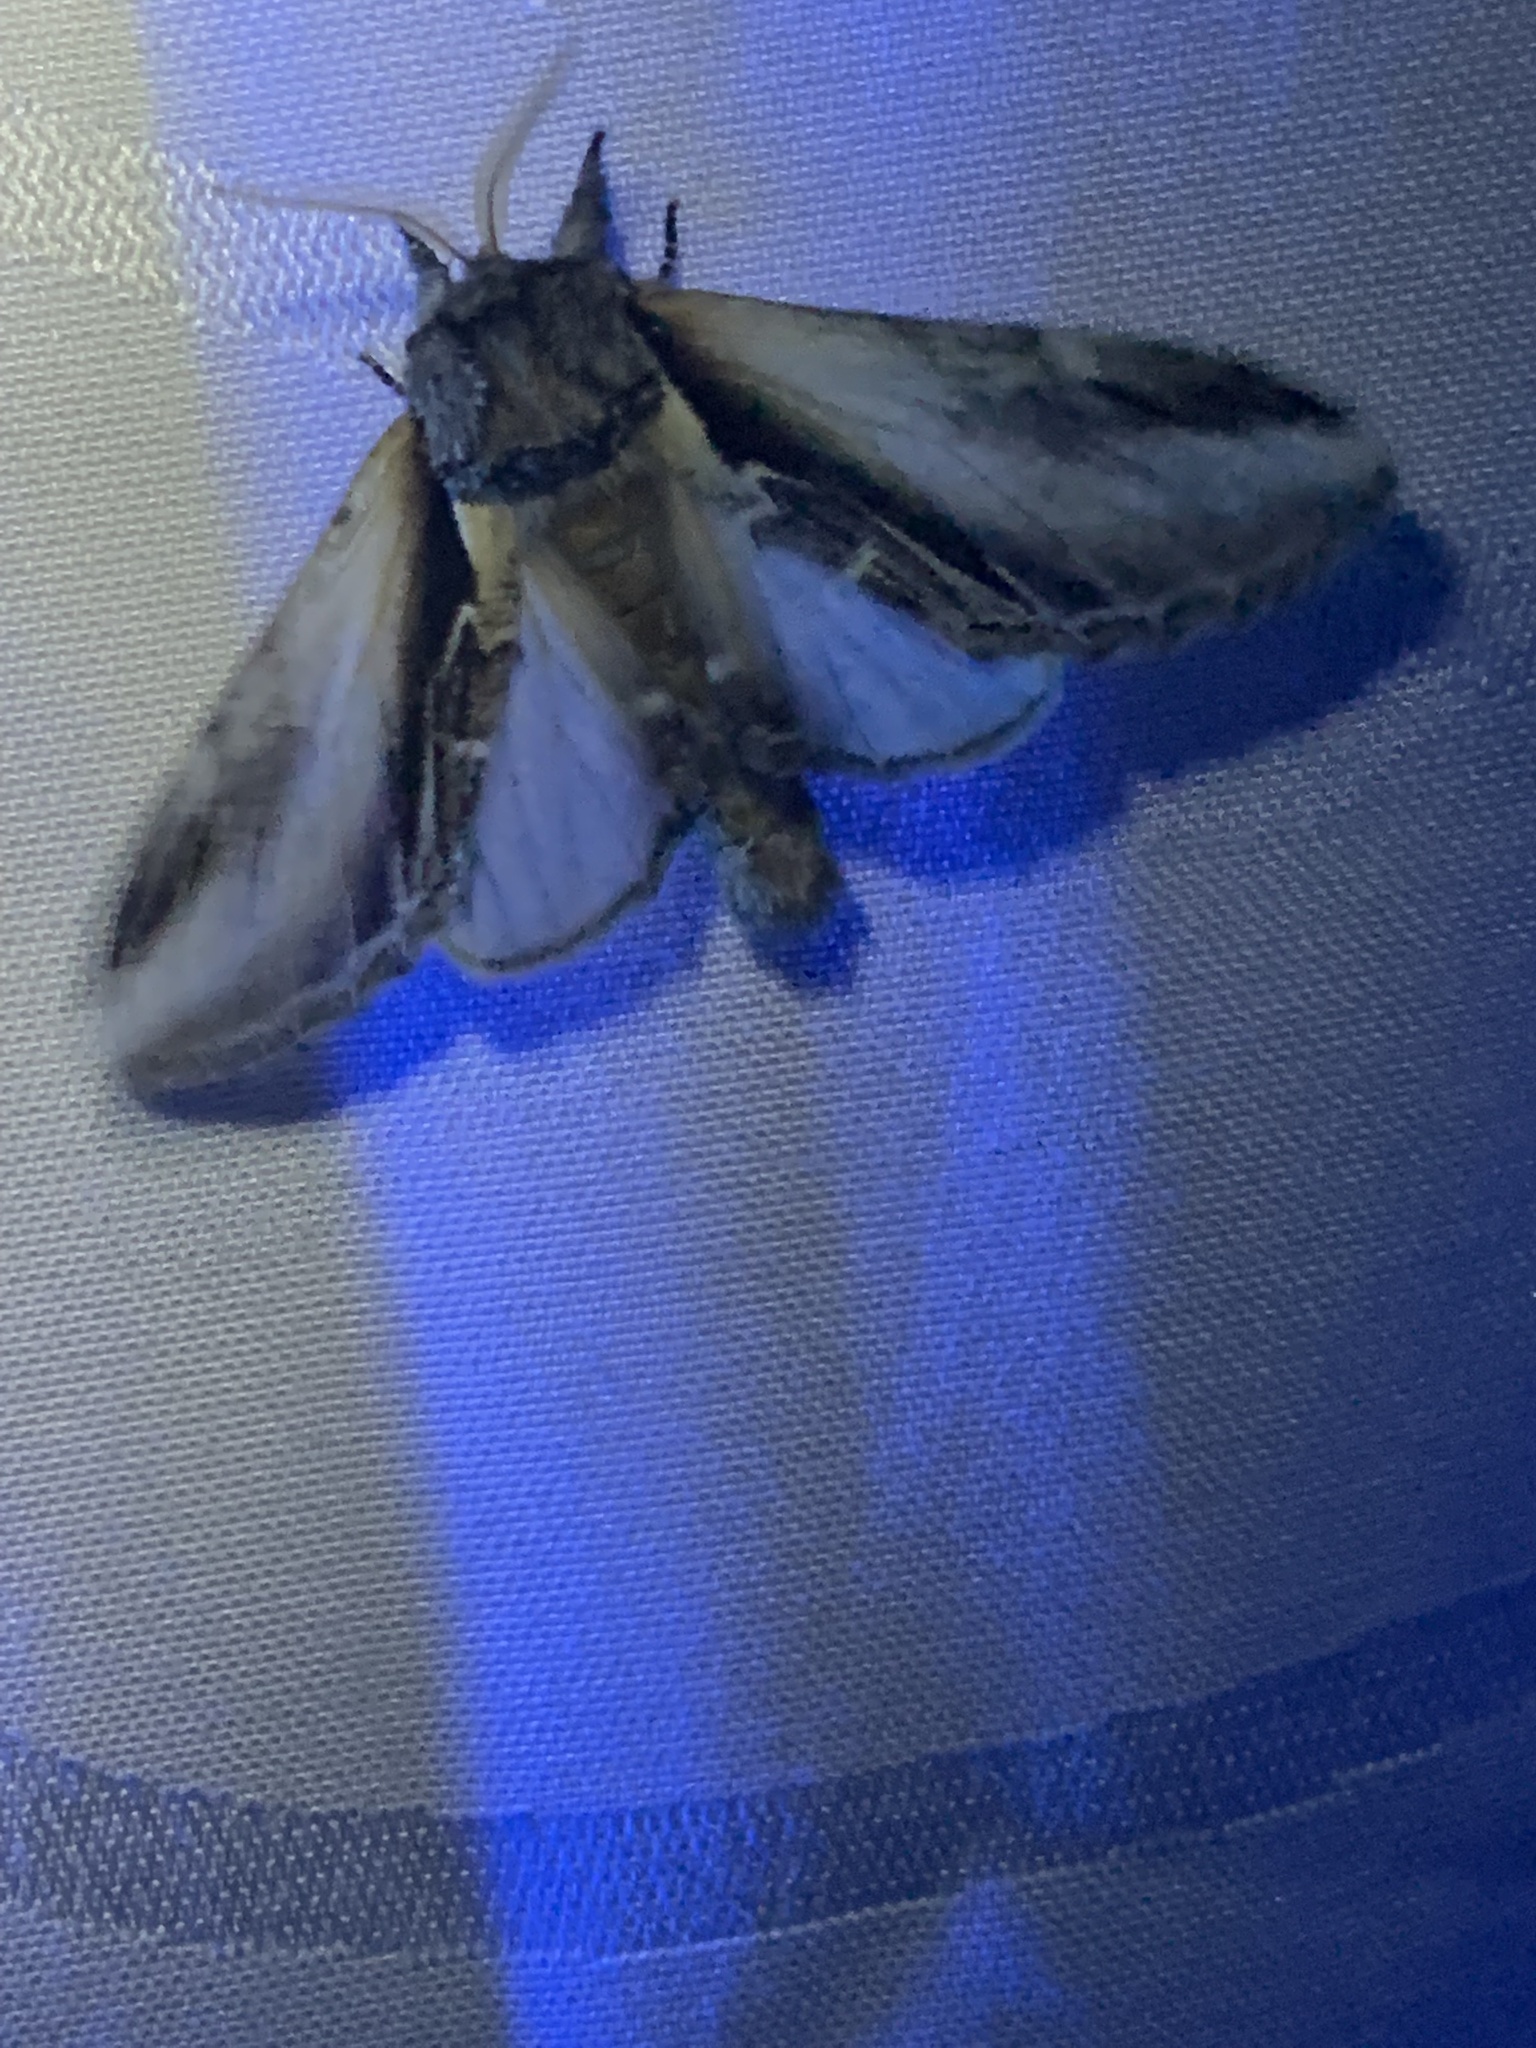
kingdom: Animalia
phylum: Arthropoda
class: Insecta
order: Lepidoptera
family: Notodontidae
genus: Pheosia
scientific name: Pheosia rimosa
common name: Black-rimmed prominent
